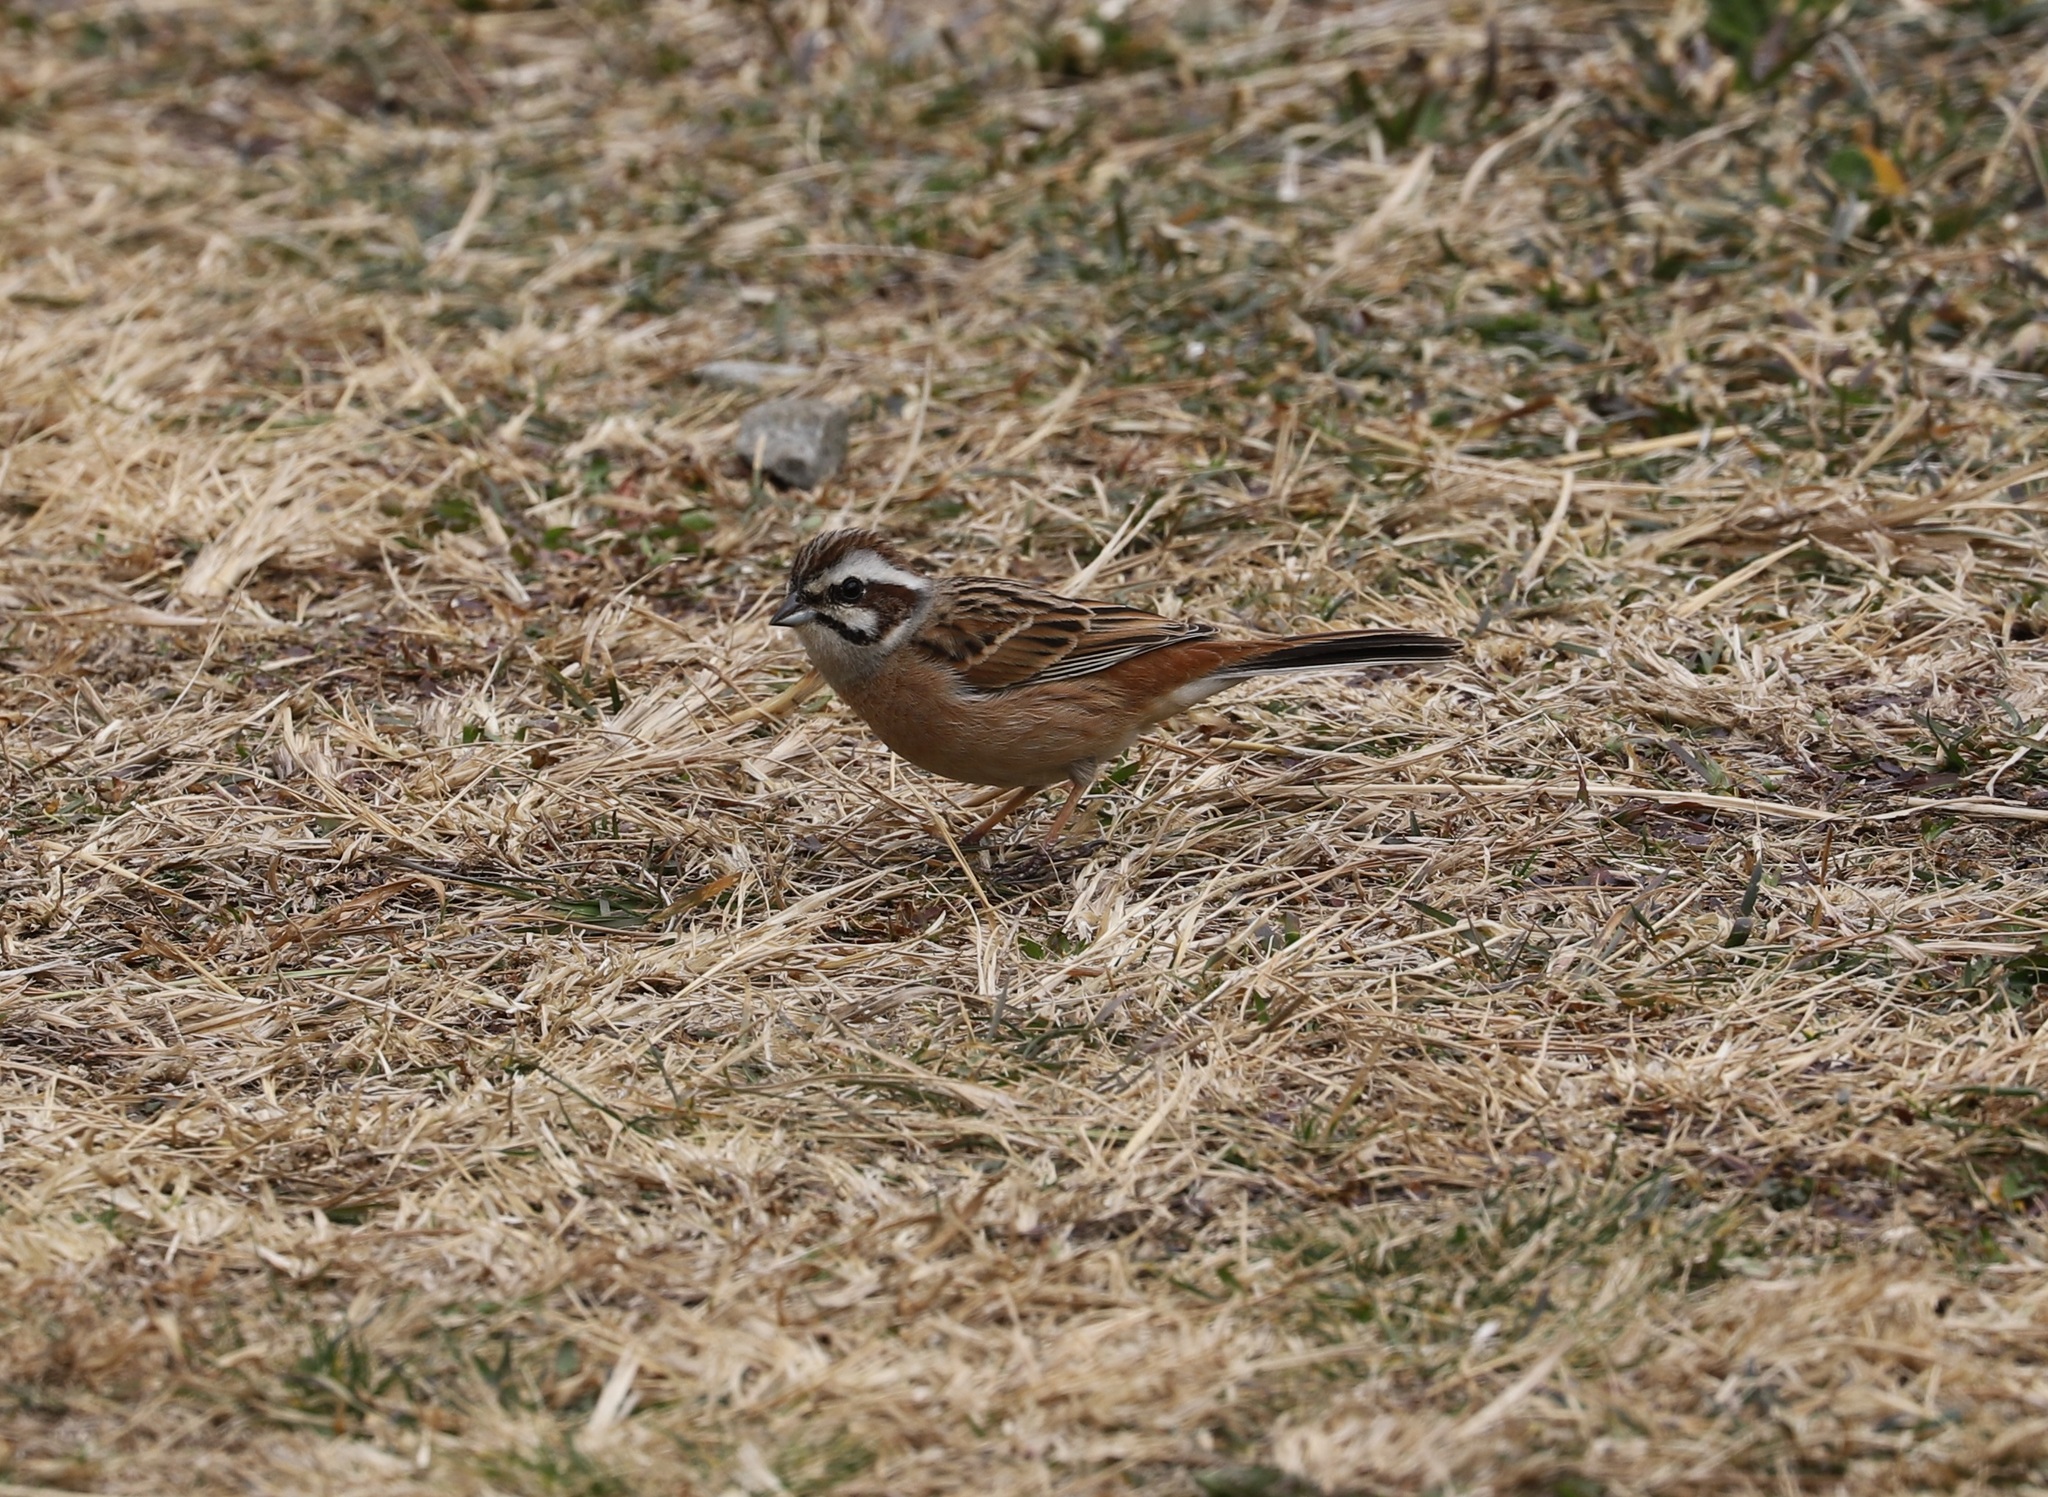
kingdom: Animalia
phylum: Chordata
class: Aves
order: Passeriformes
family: Emberizidae
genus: Emberiza
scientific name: Emberiza cioides
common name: Meadow bunting
